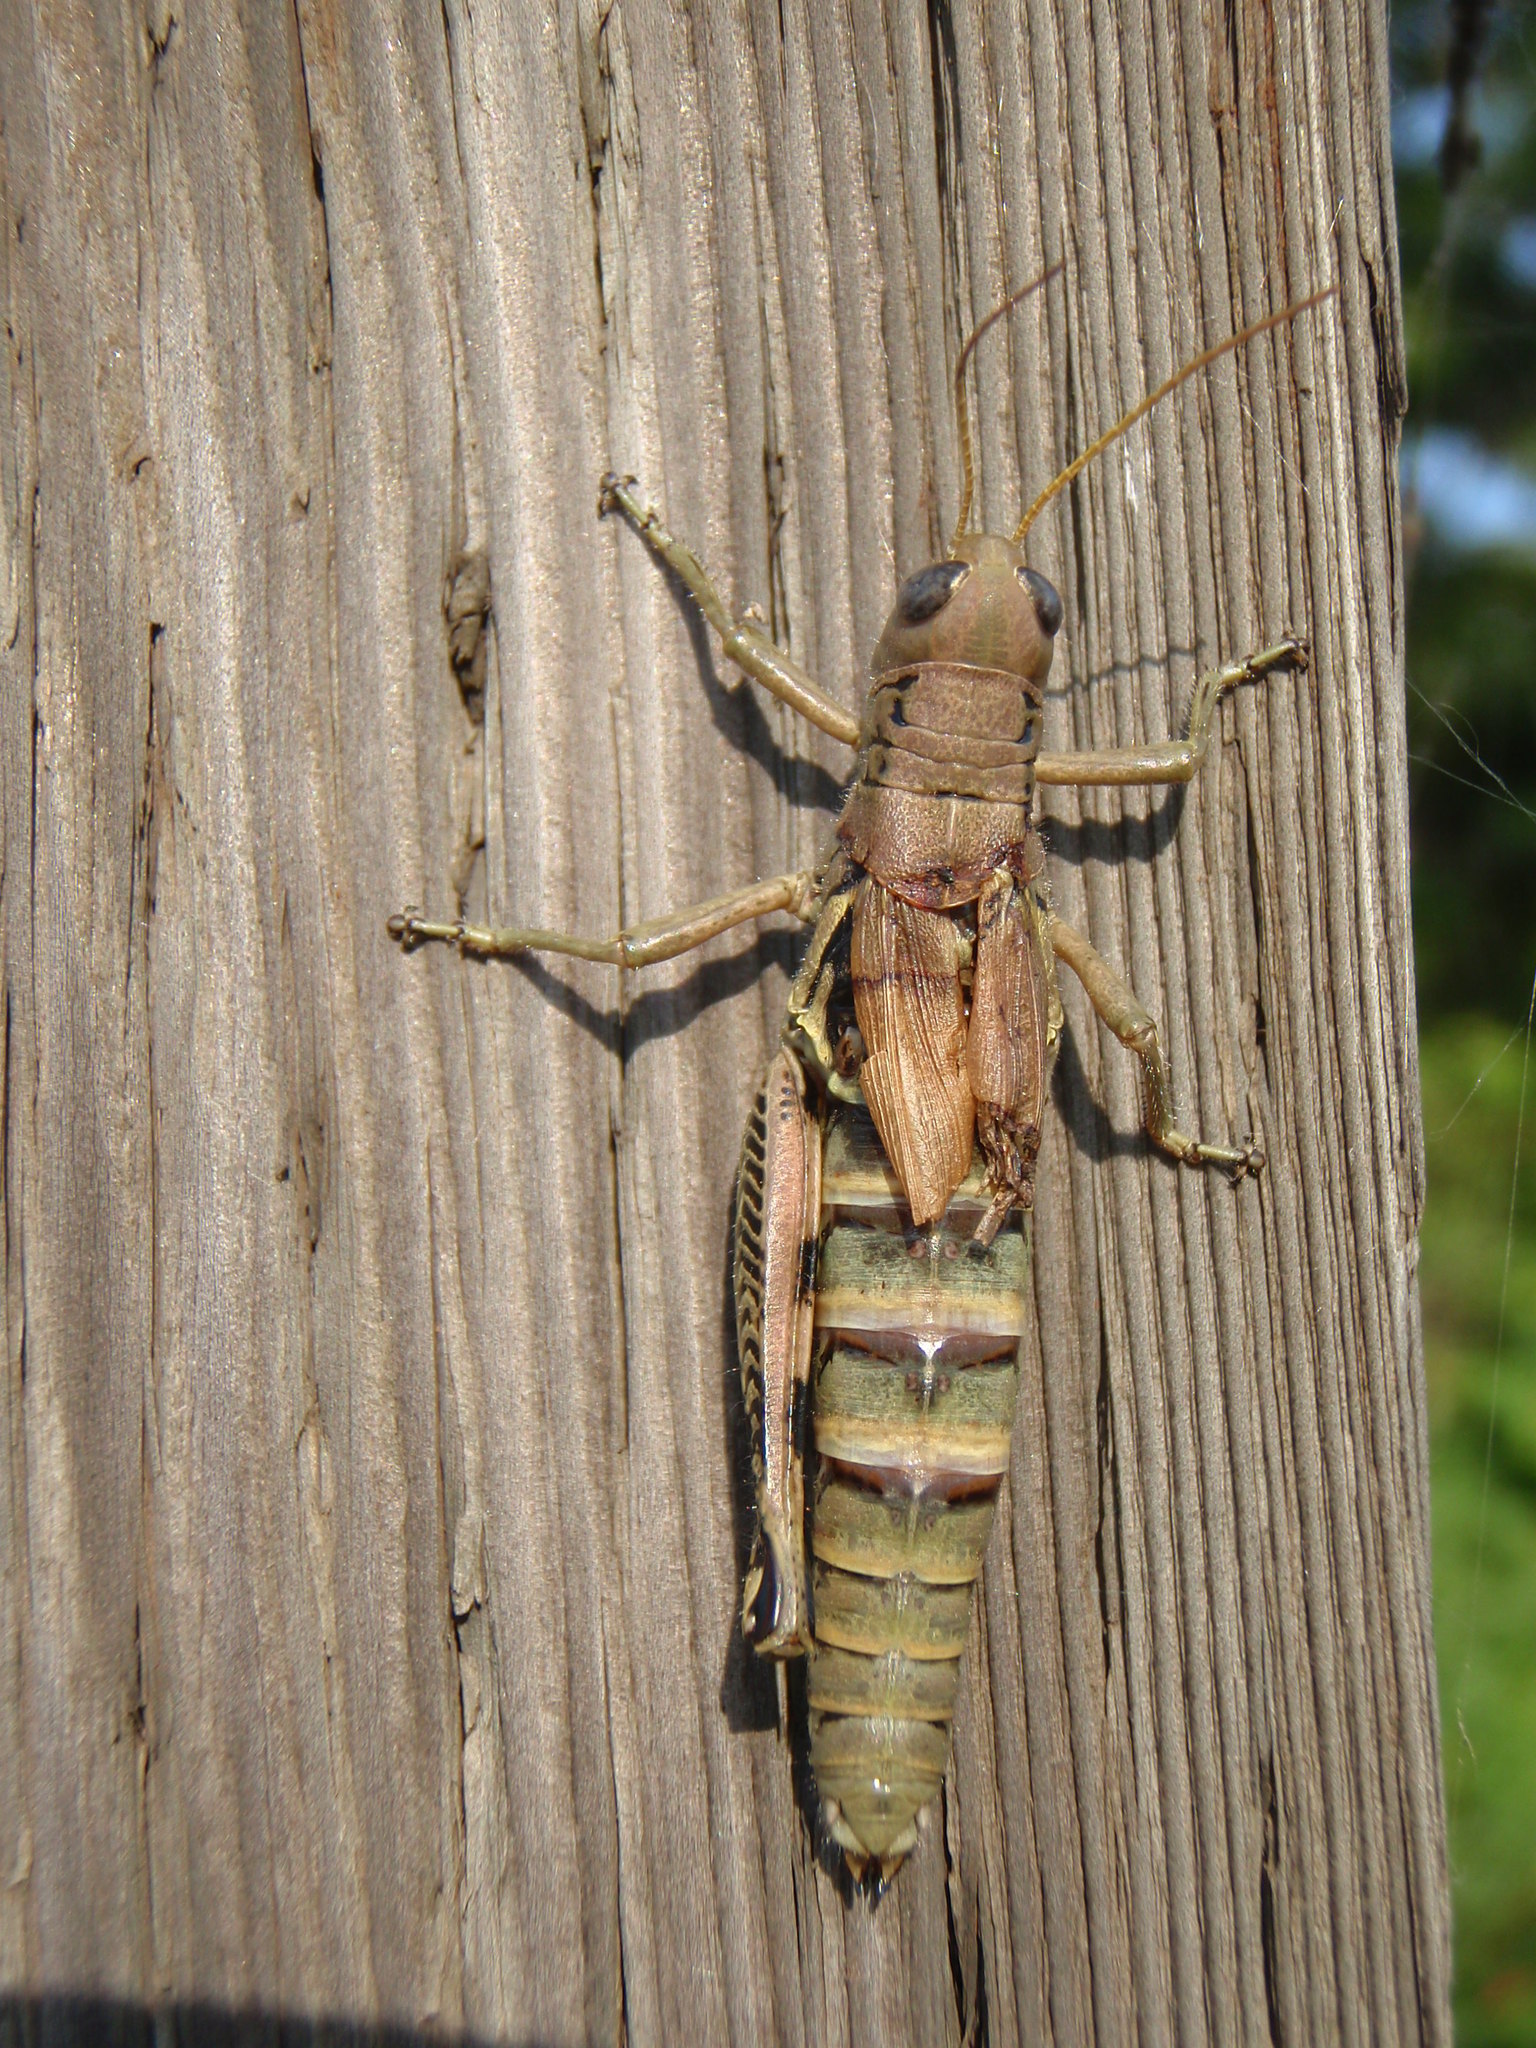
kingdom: Animalia
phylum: Arthropoda
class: Insecta
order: Orthoptera
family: Acrididae
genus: Melanoplus
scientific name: Melanoplus differentialis
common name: Differential grasshopper
